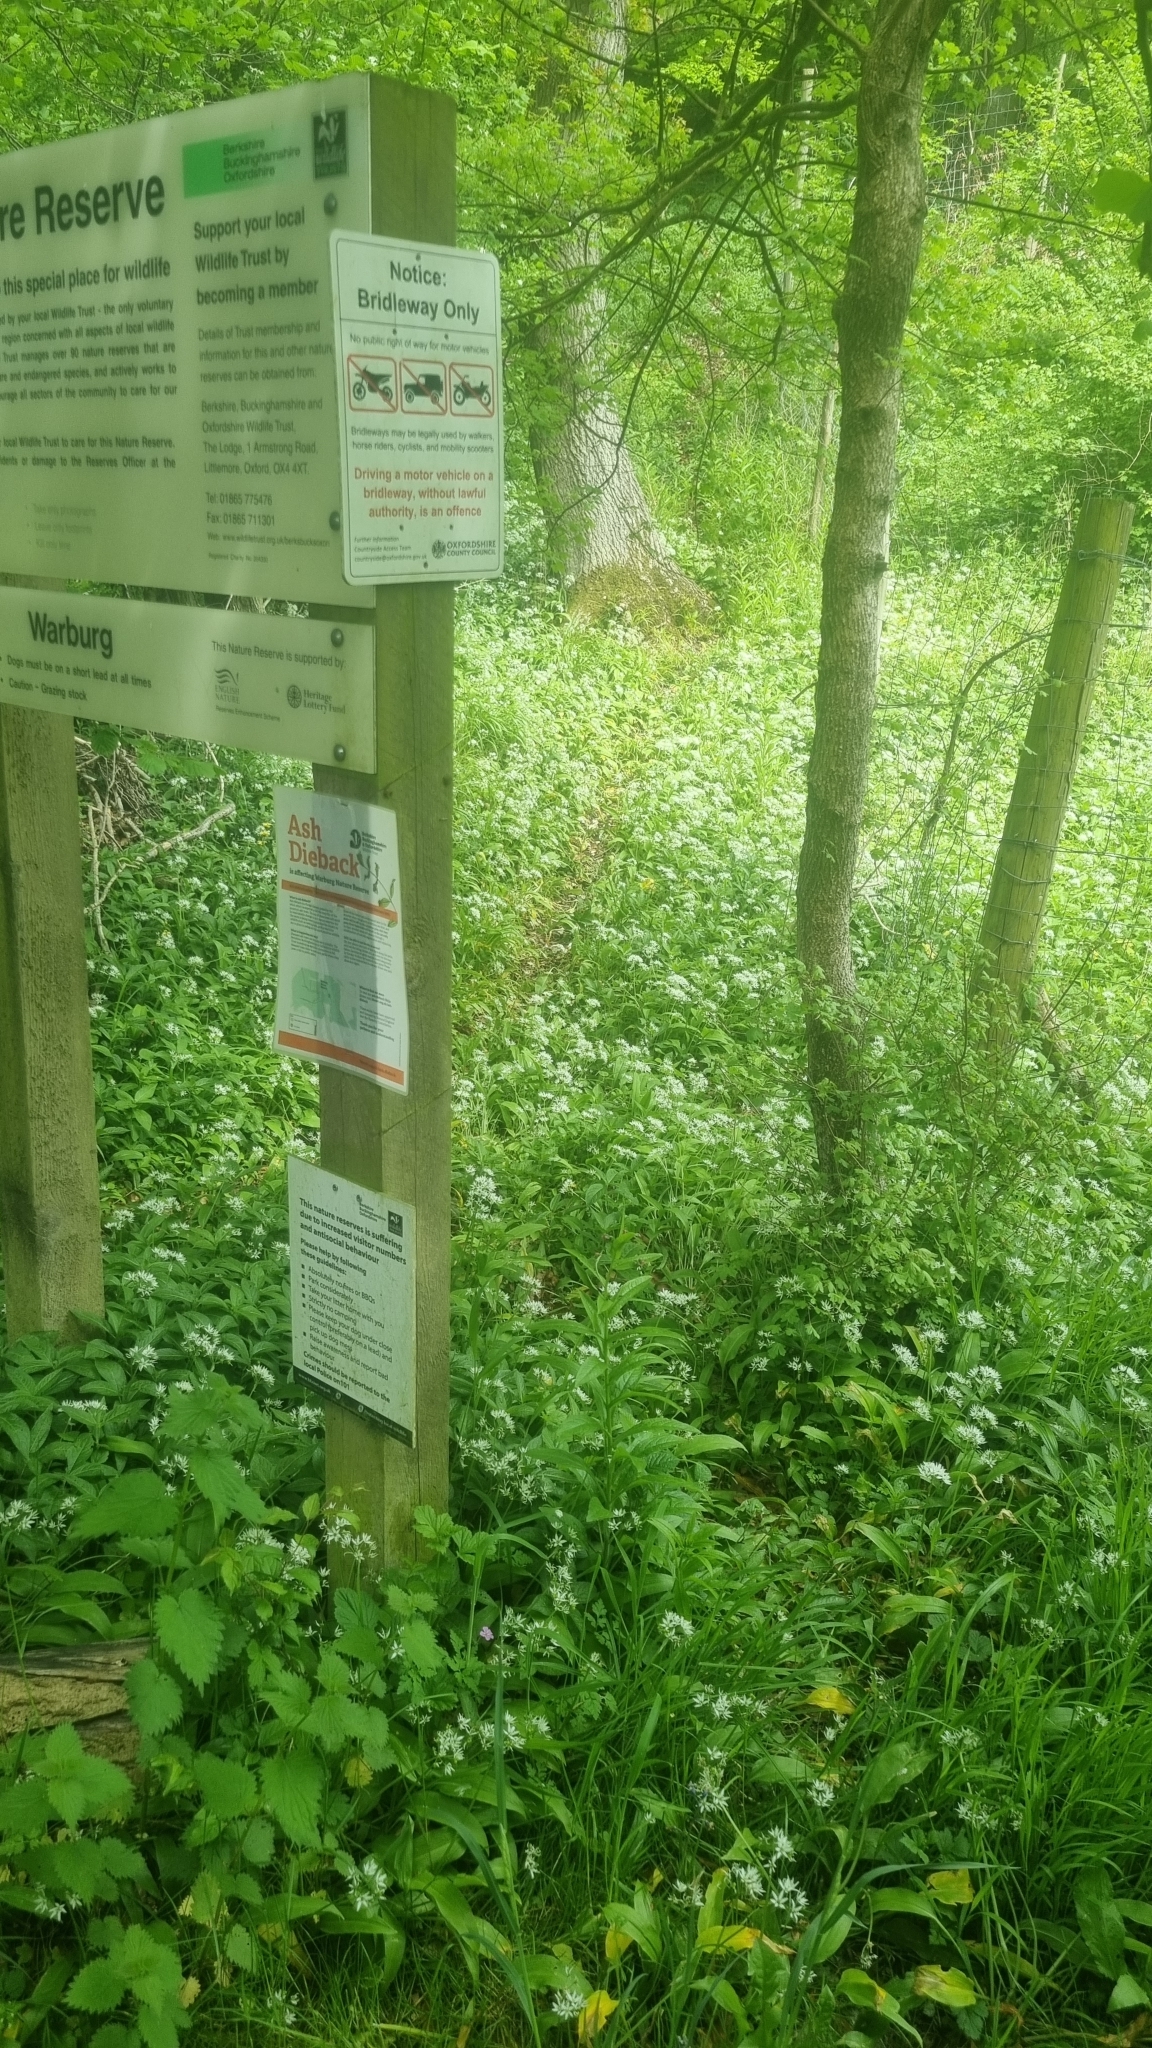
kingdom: Plantae
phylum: Tracheophyta
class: Liliopsida
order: Asparagales
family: Amaryllidaceae
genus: Allium
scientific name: Allium ursinum
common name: Ramsons
